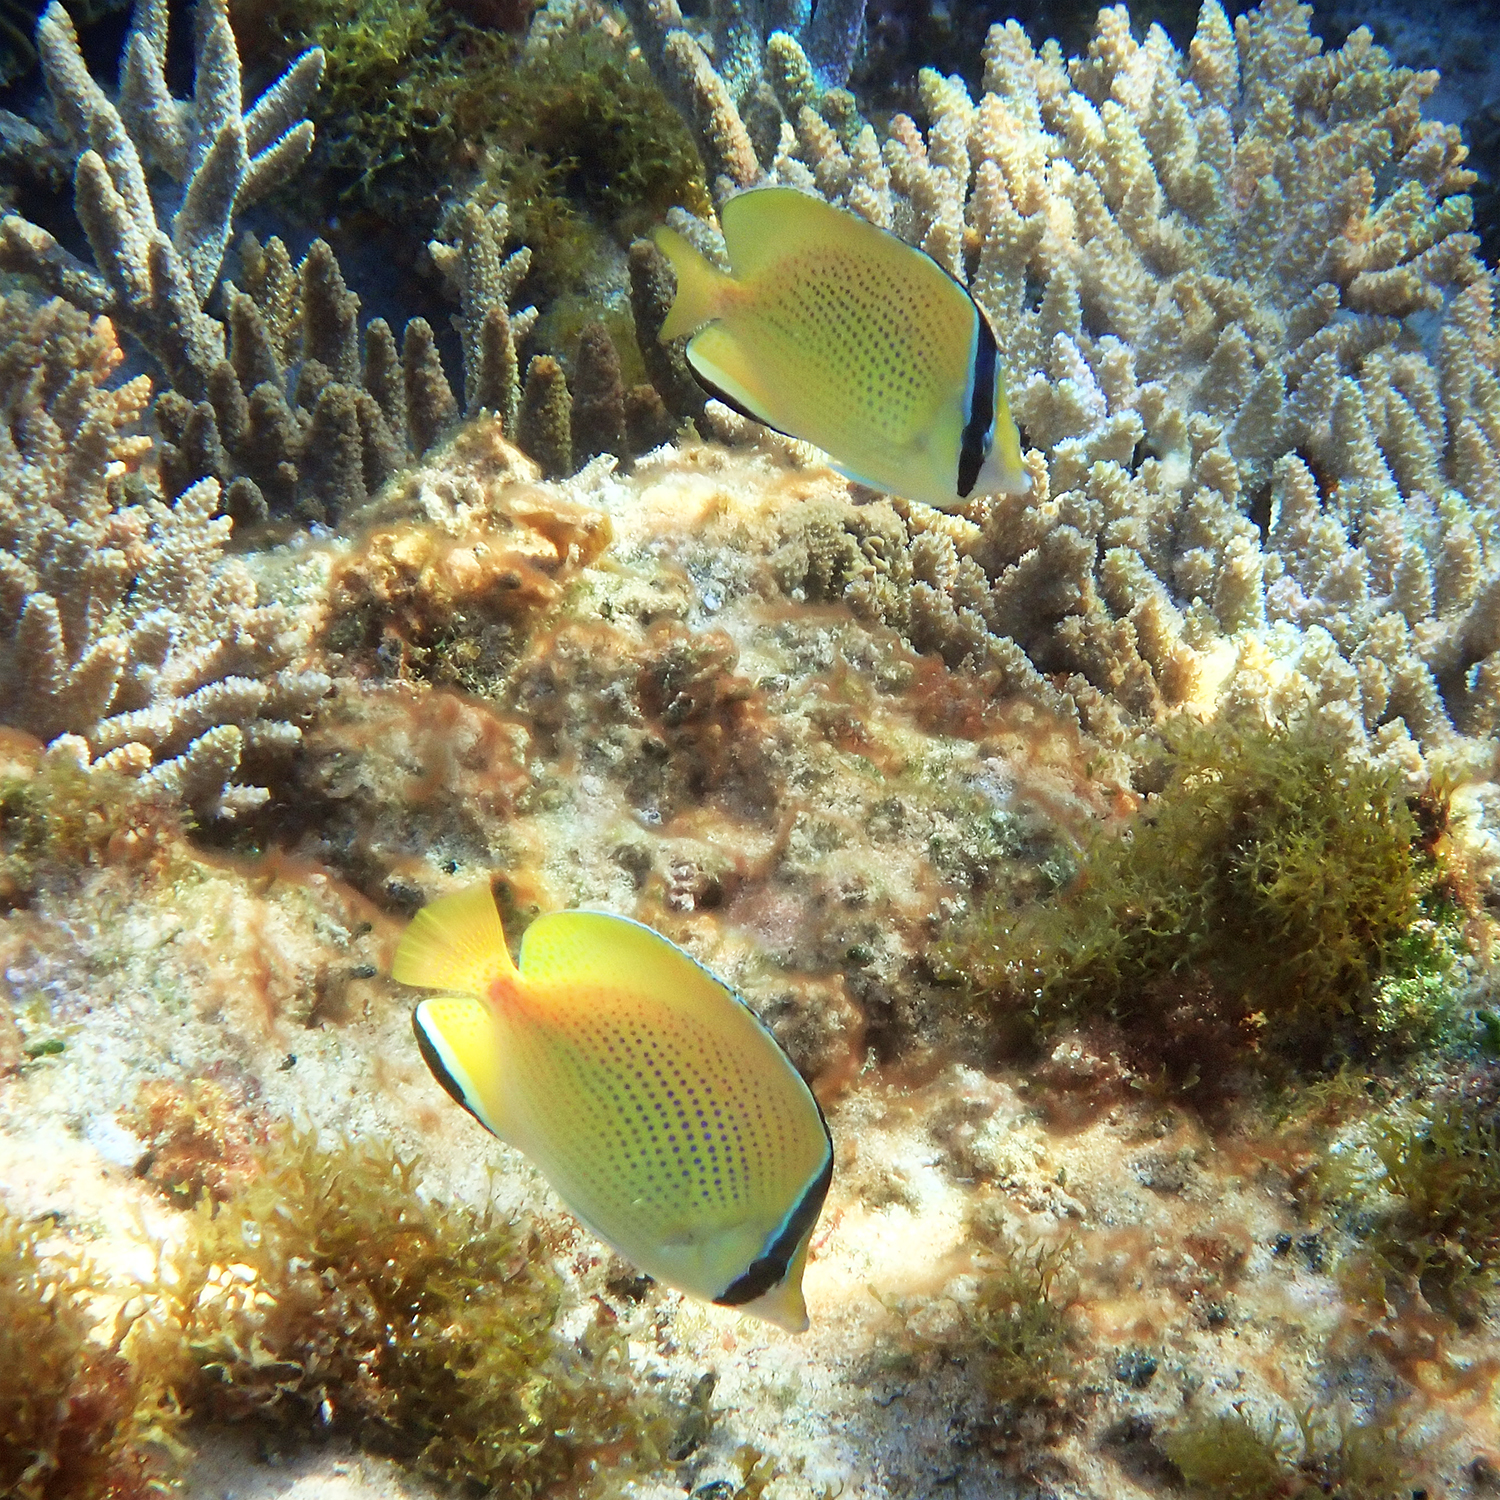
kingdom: Animalia
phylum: Chordata
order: Perciformes
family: Chaetodontidae
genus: Chaetodon
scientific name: Chaetodon citrinellus
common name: Speckled butterflyfish
